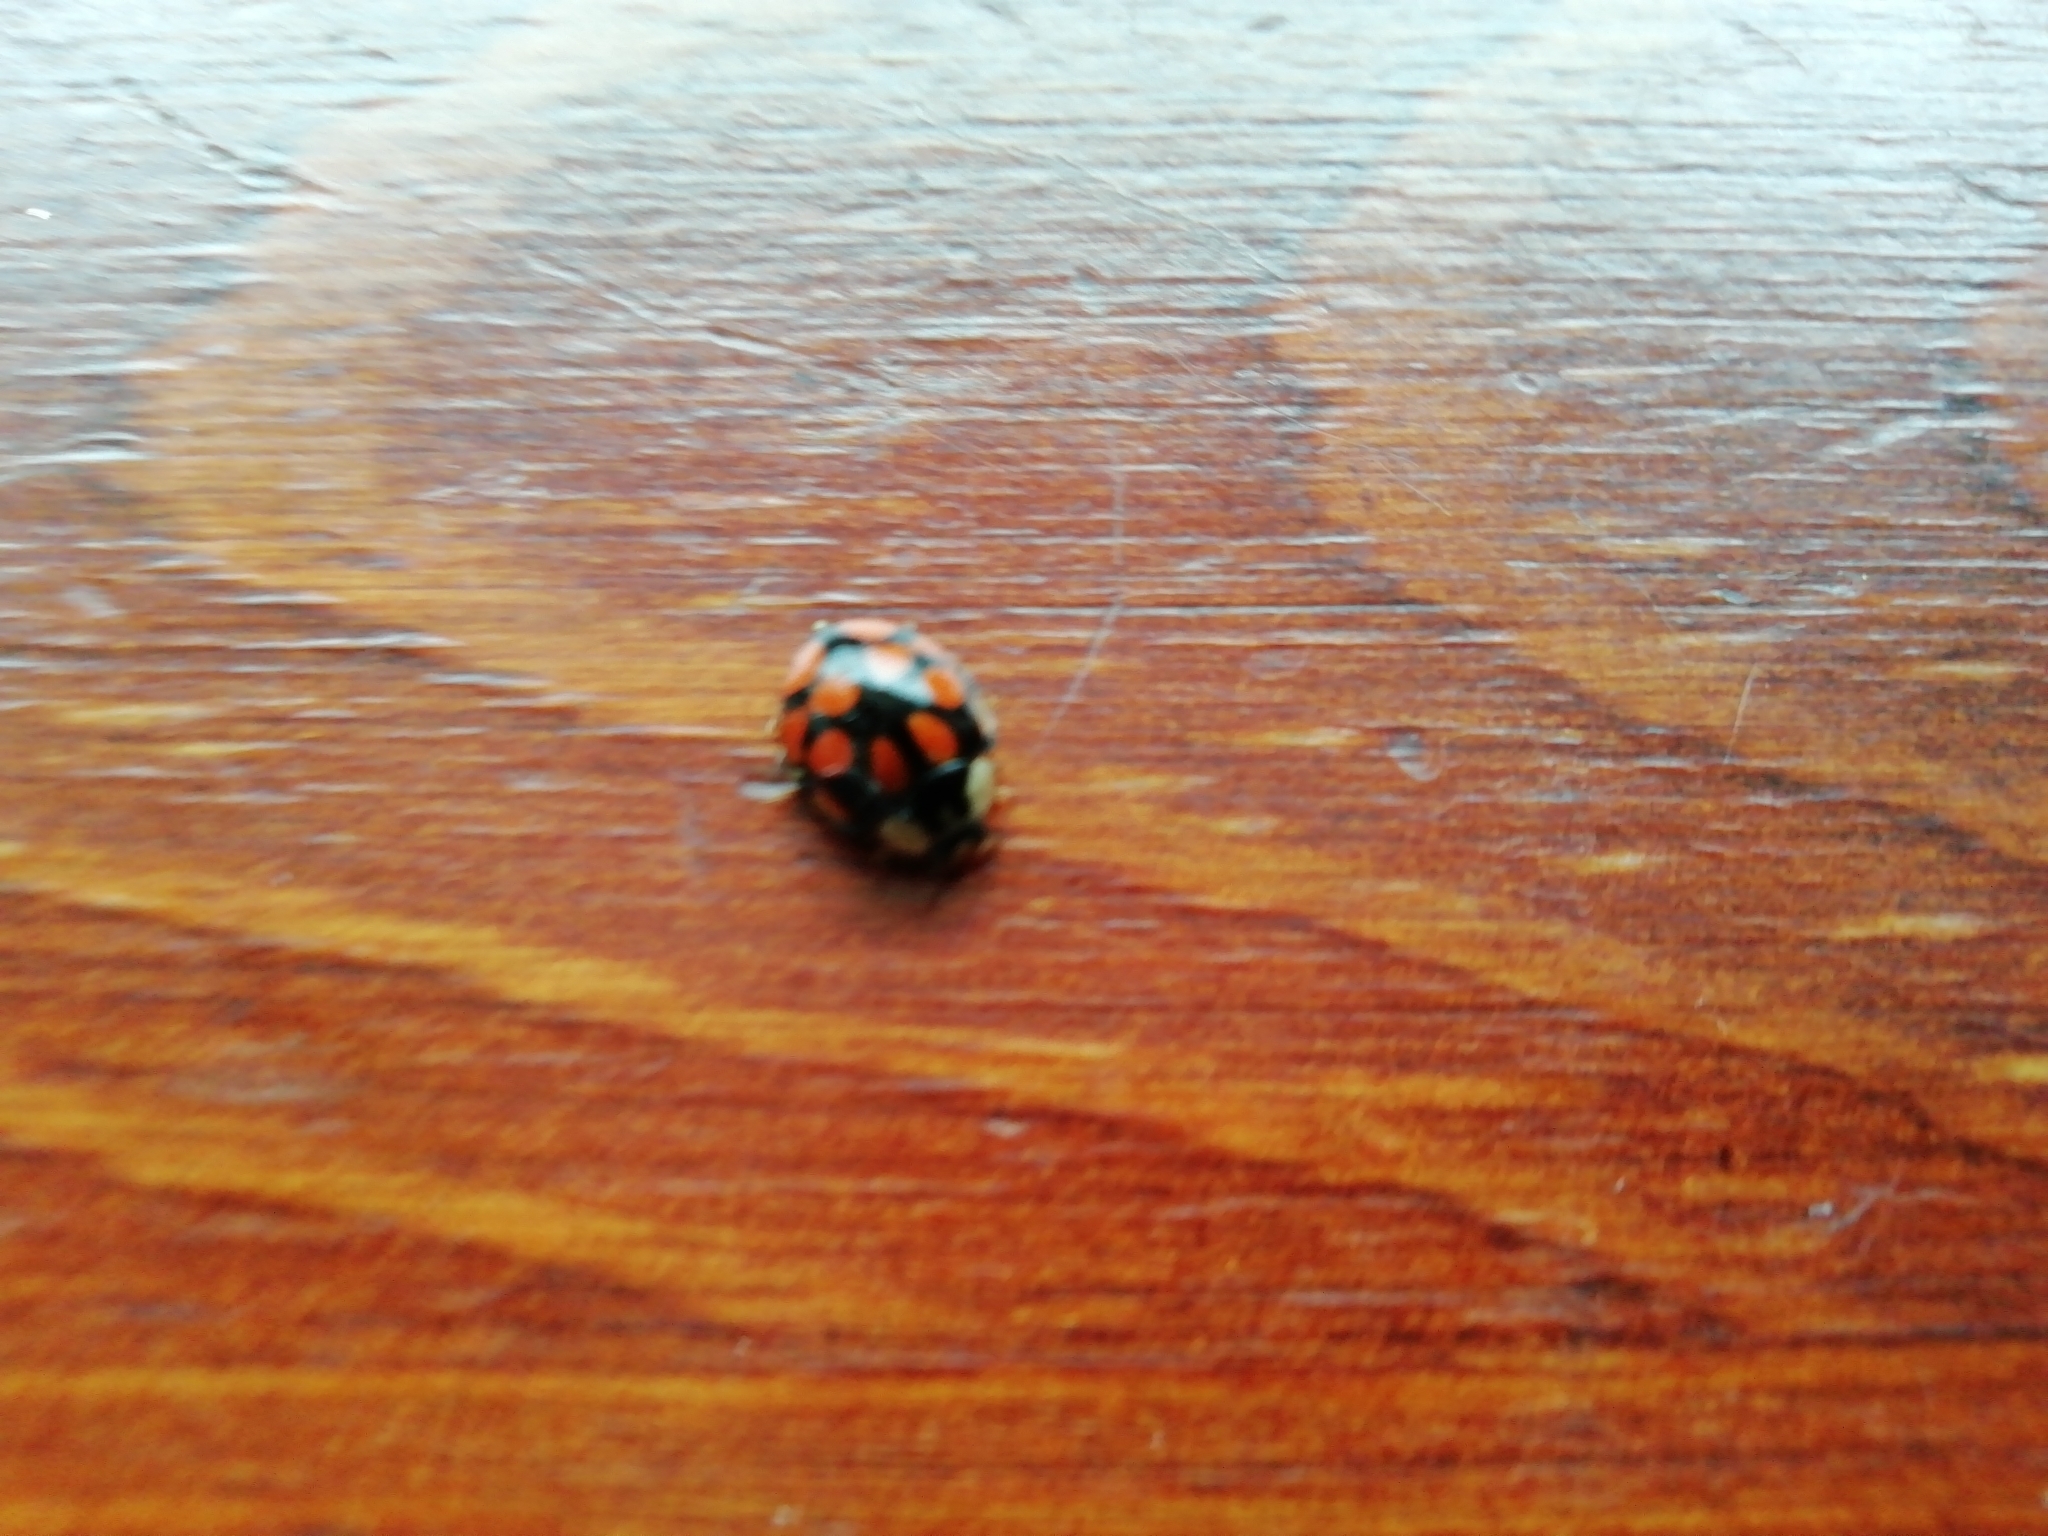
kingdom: Animalia
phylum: Arthropoda
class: Insecta
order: Coleoptera
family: Coccinellidae
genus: Harmonia
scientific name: Harmonia axyridis
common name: Harlequin ladybird
